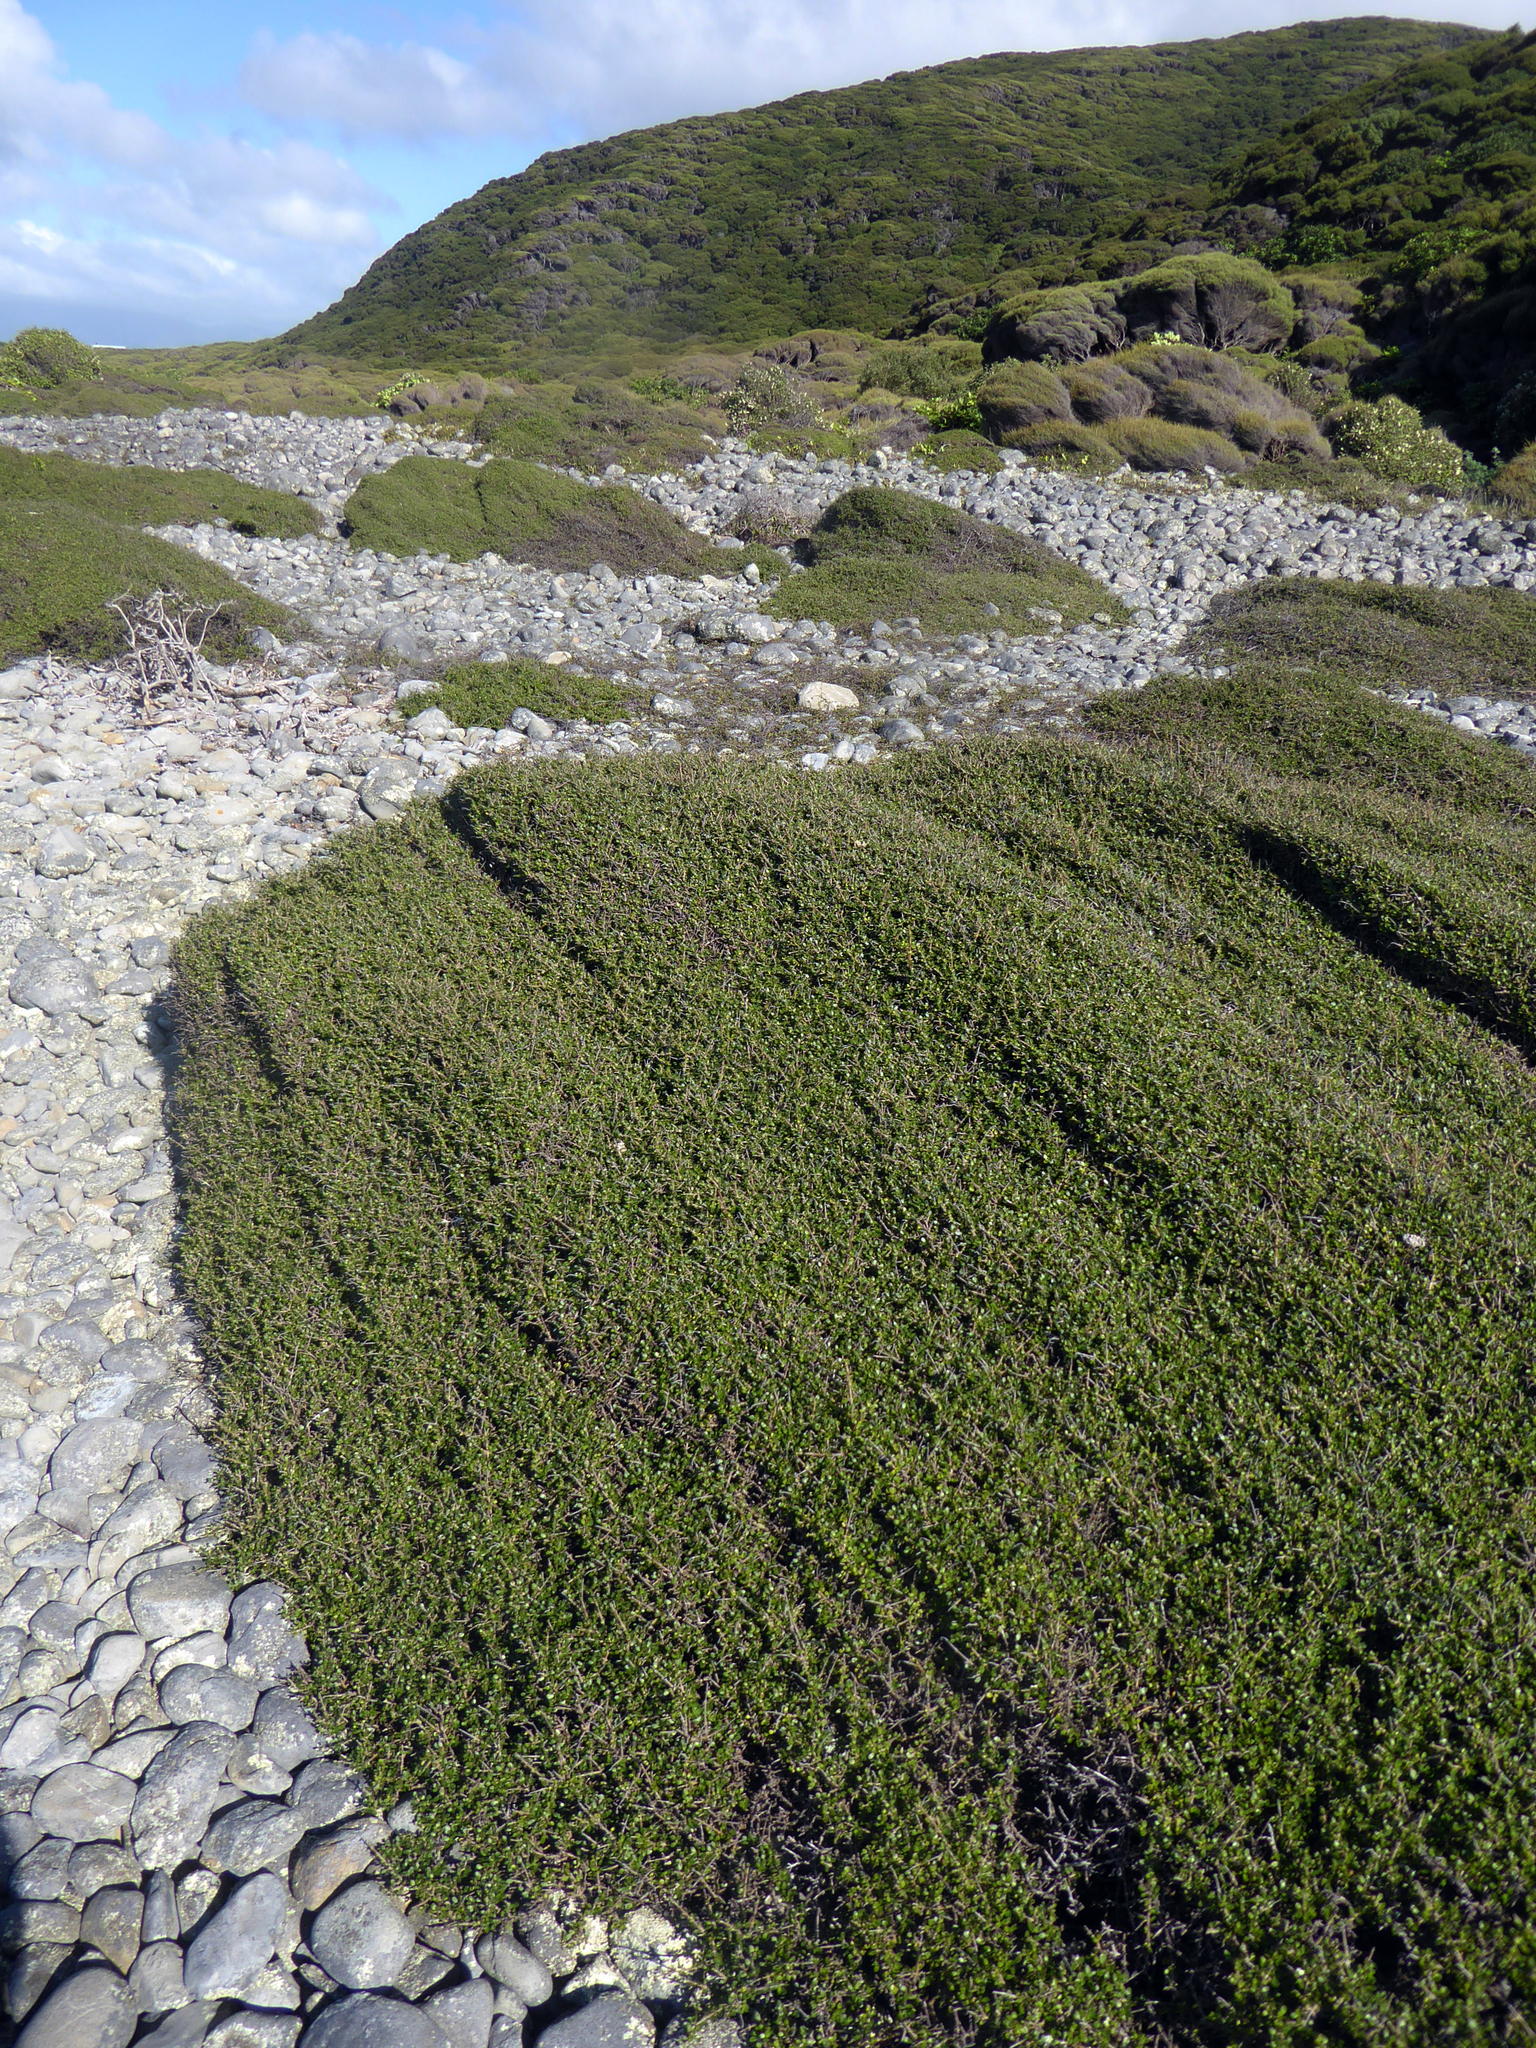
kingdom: Plantae
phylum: Tracheophyta
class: Magnoliopsida
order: Gentianales
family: Rubiaceae
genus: Coprosma
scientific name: Coprosma propinqua
